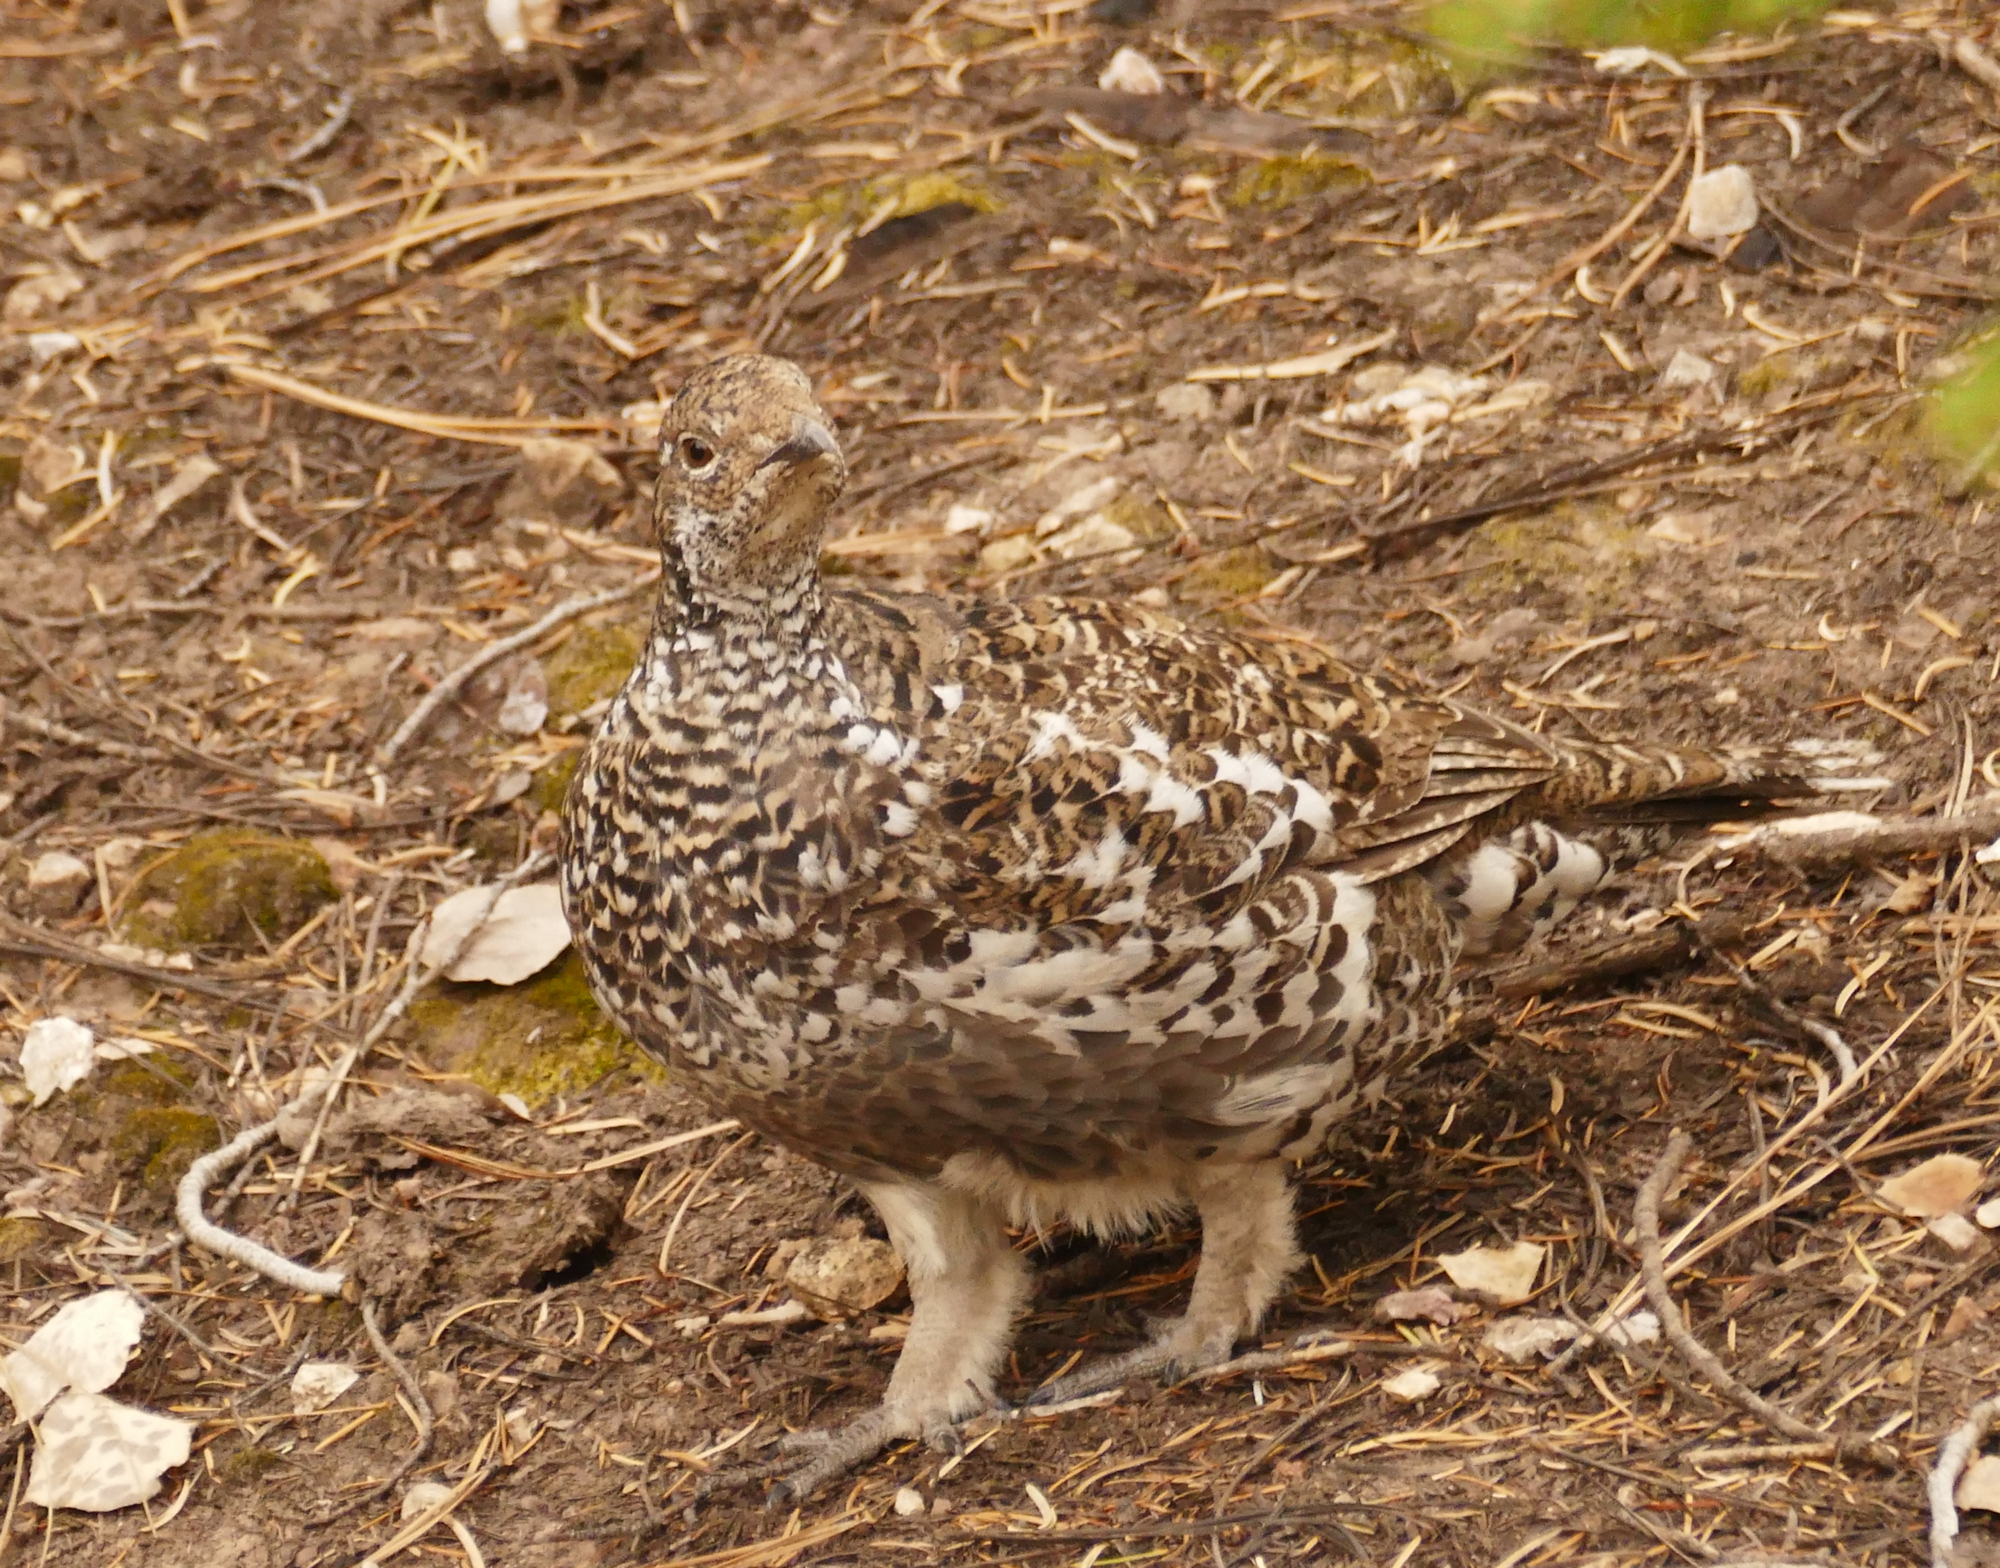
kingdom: Animalia
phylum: Chordata
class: Aves
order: Galliformes
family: Phasianidae
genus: Dendragapus
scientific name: Dendragapus obscurus
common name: Dusky grouse
